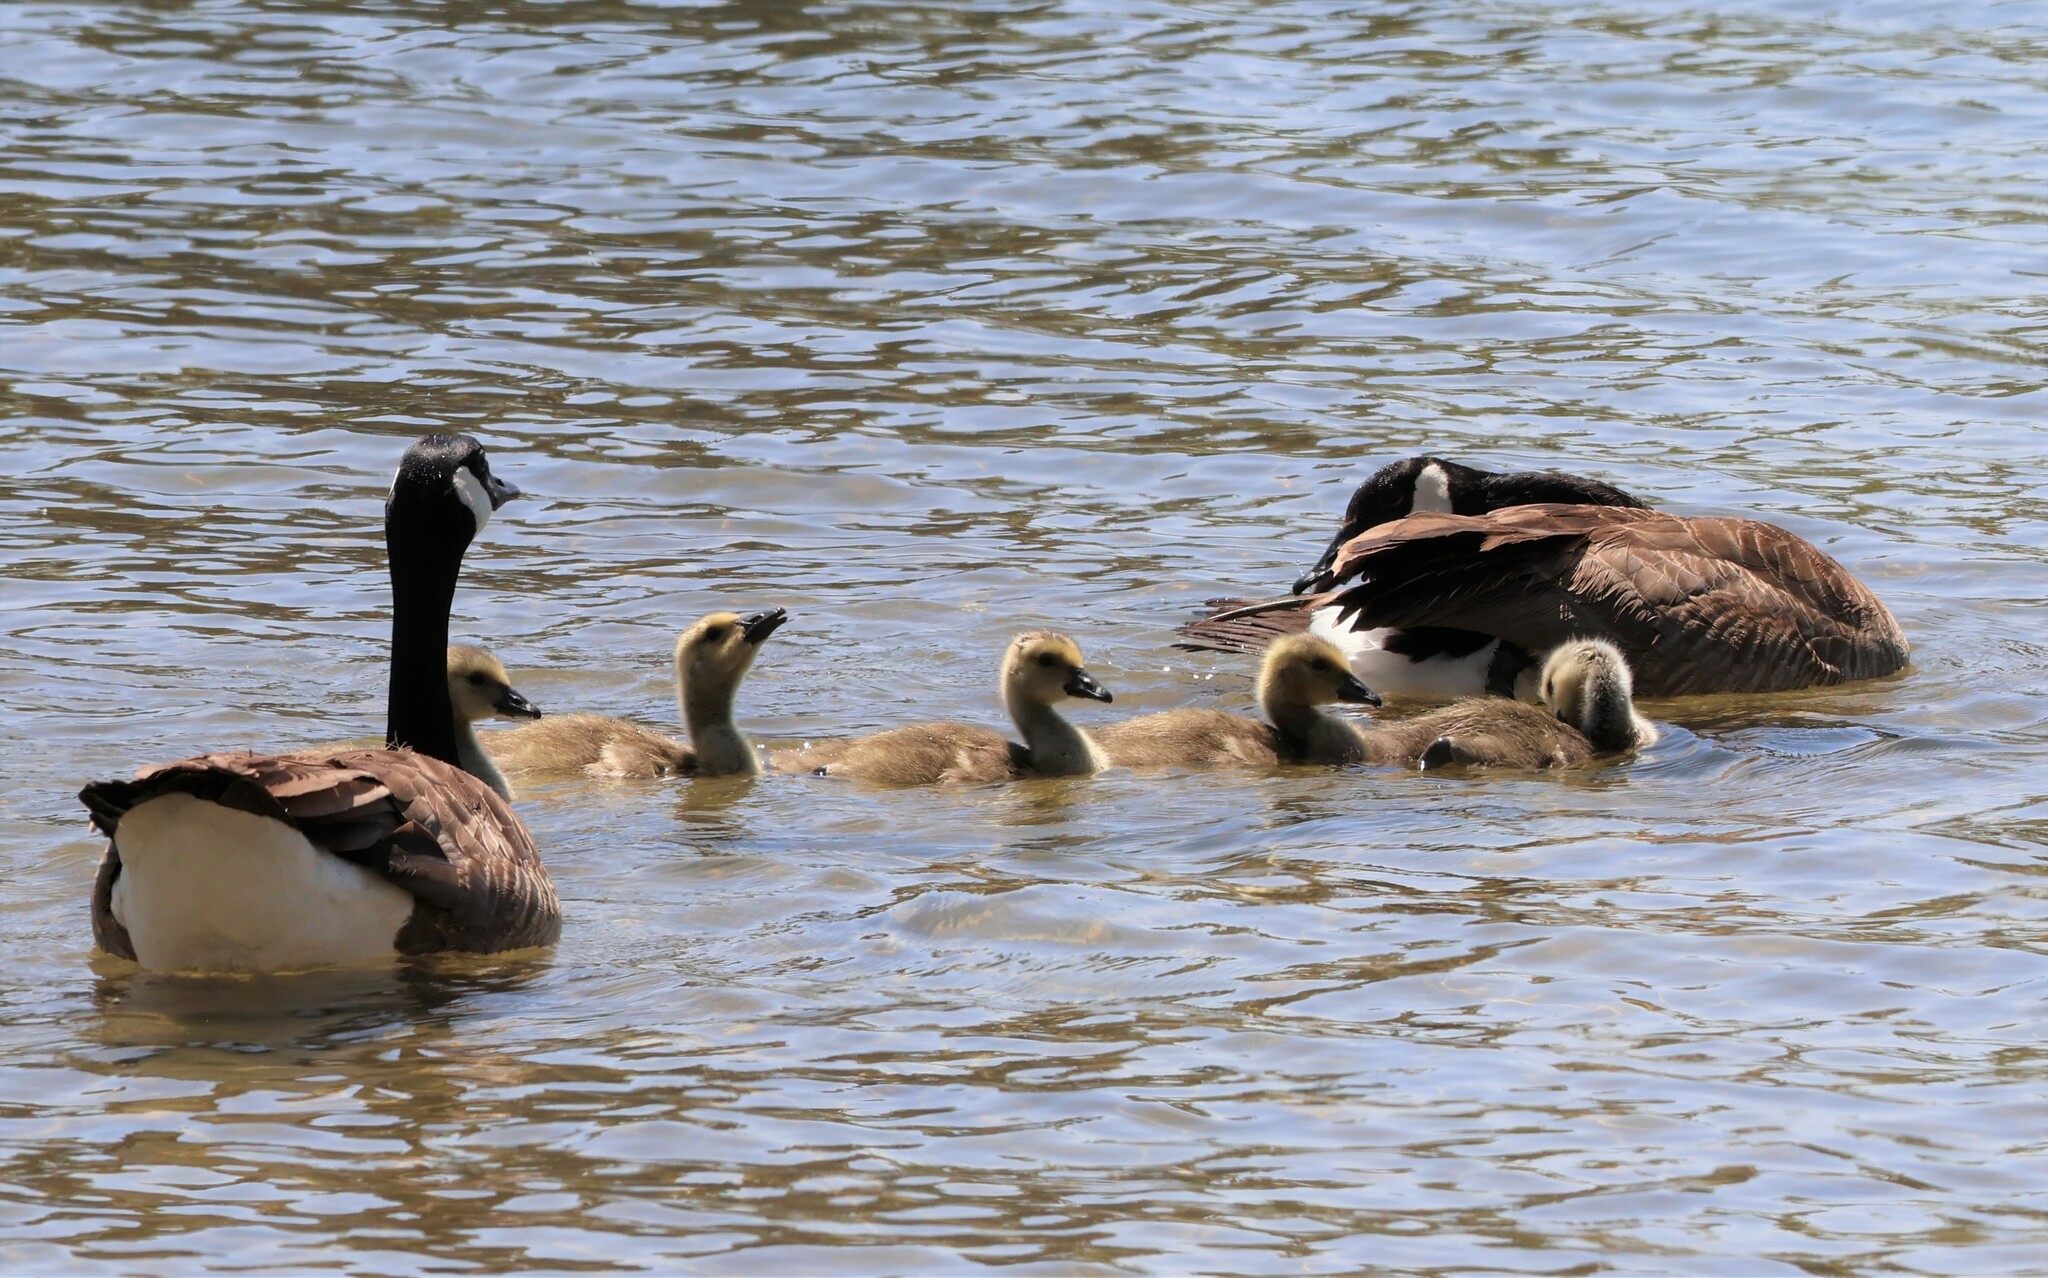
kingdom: Animalia
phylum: Chordata
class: Aves
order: Anseriformes
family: Anatidae
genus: Branta
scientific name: Branta canadensis
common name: Canada goose
